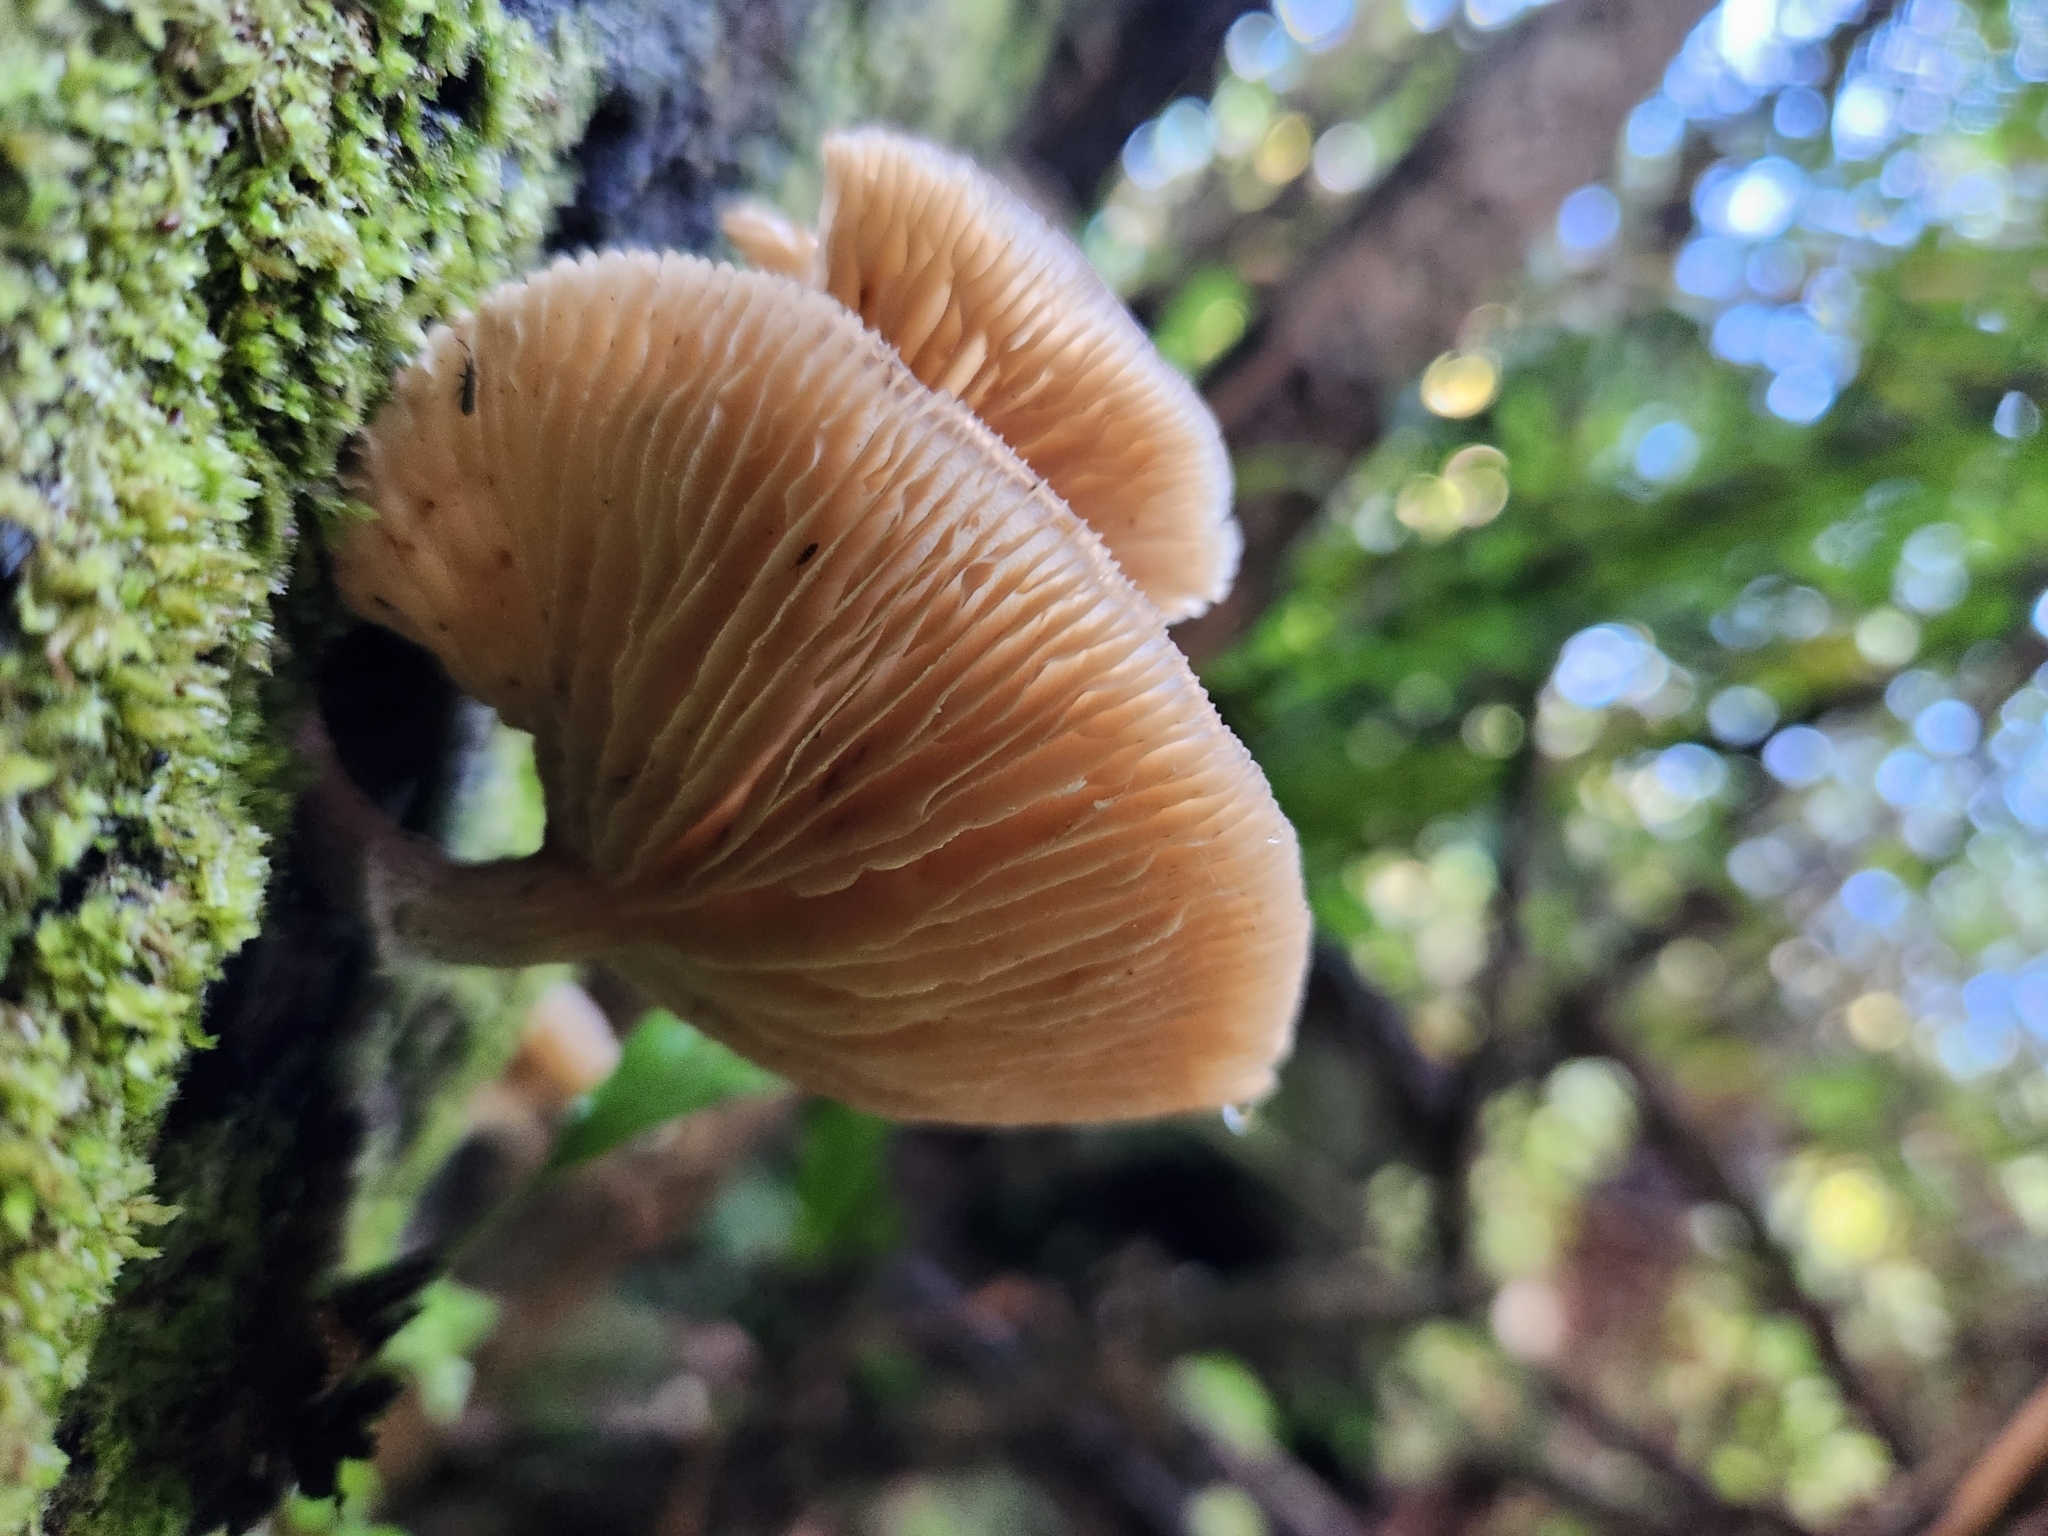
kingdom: Fungi
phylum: Basidiomycota
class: Agaricomycetes
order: Agaricales
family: Physalacriaceae
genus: Armillaria
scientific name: Armillaria novae-zelandiae
